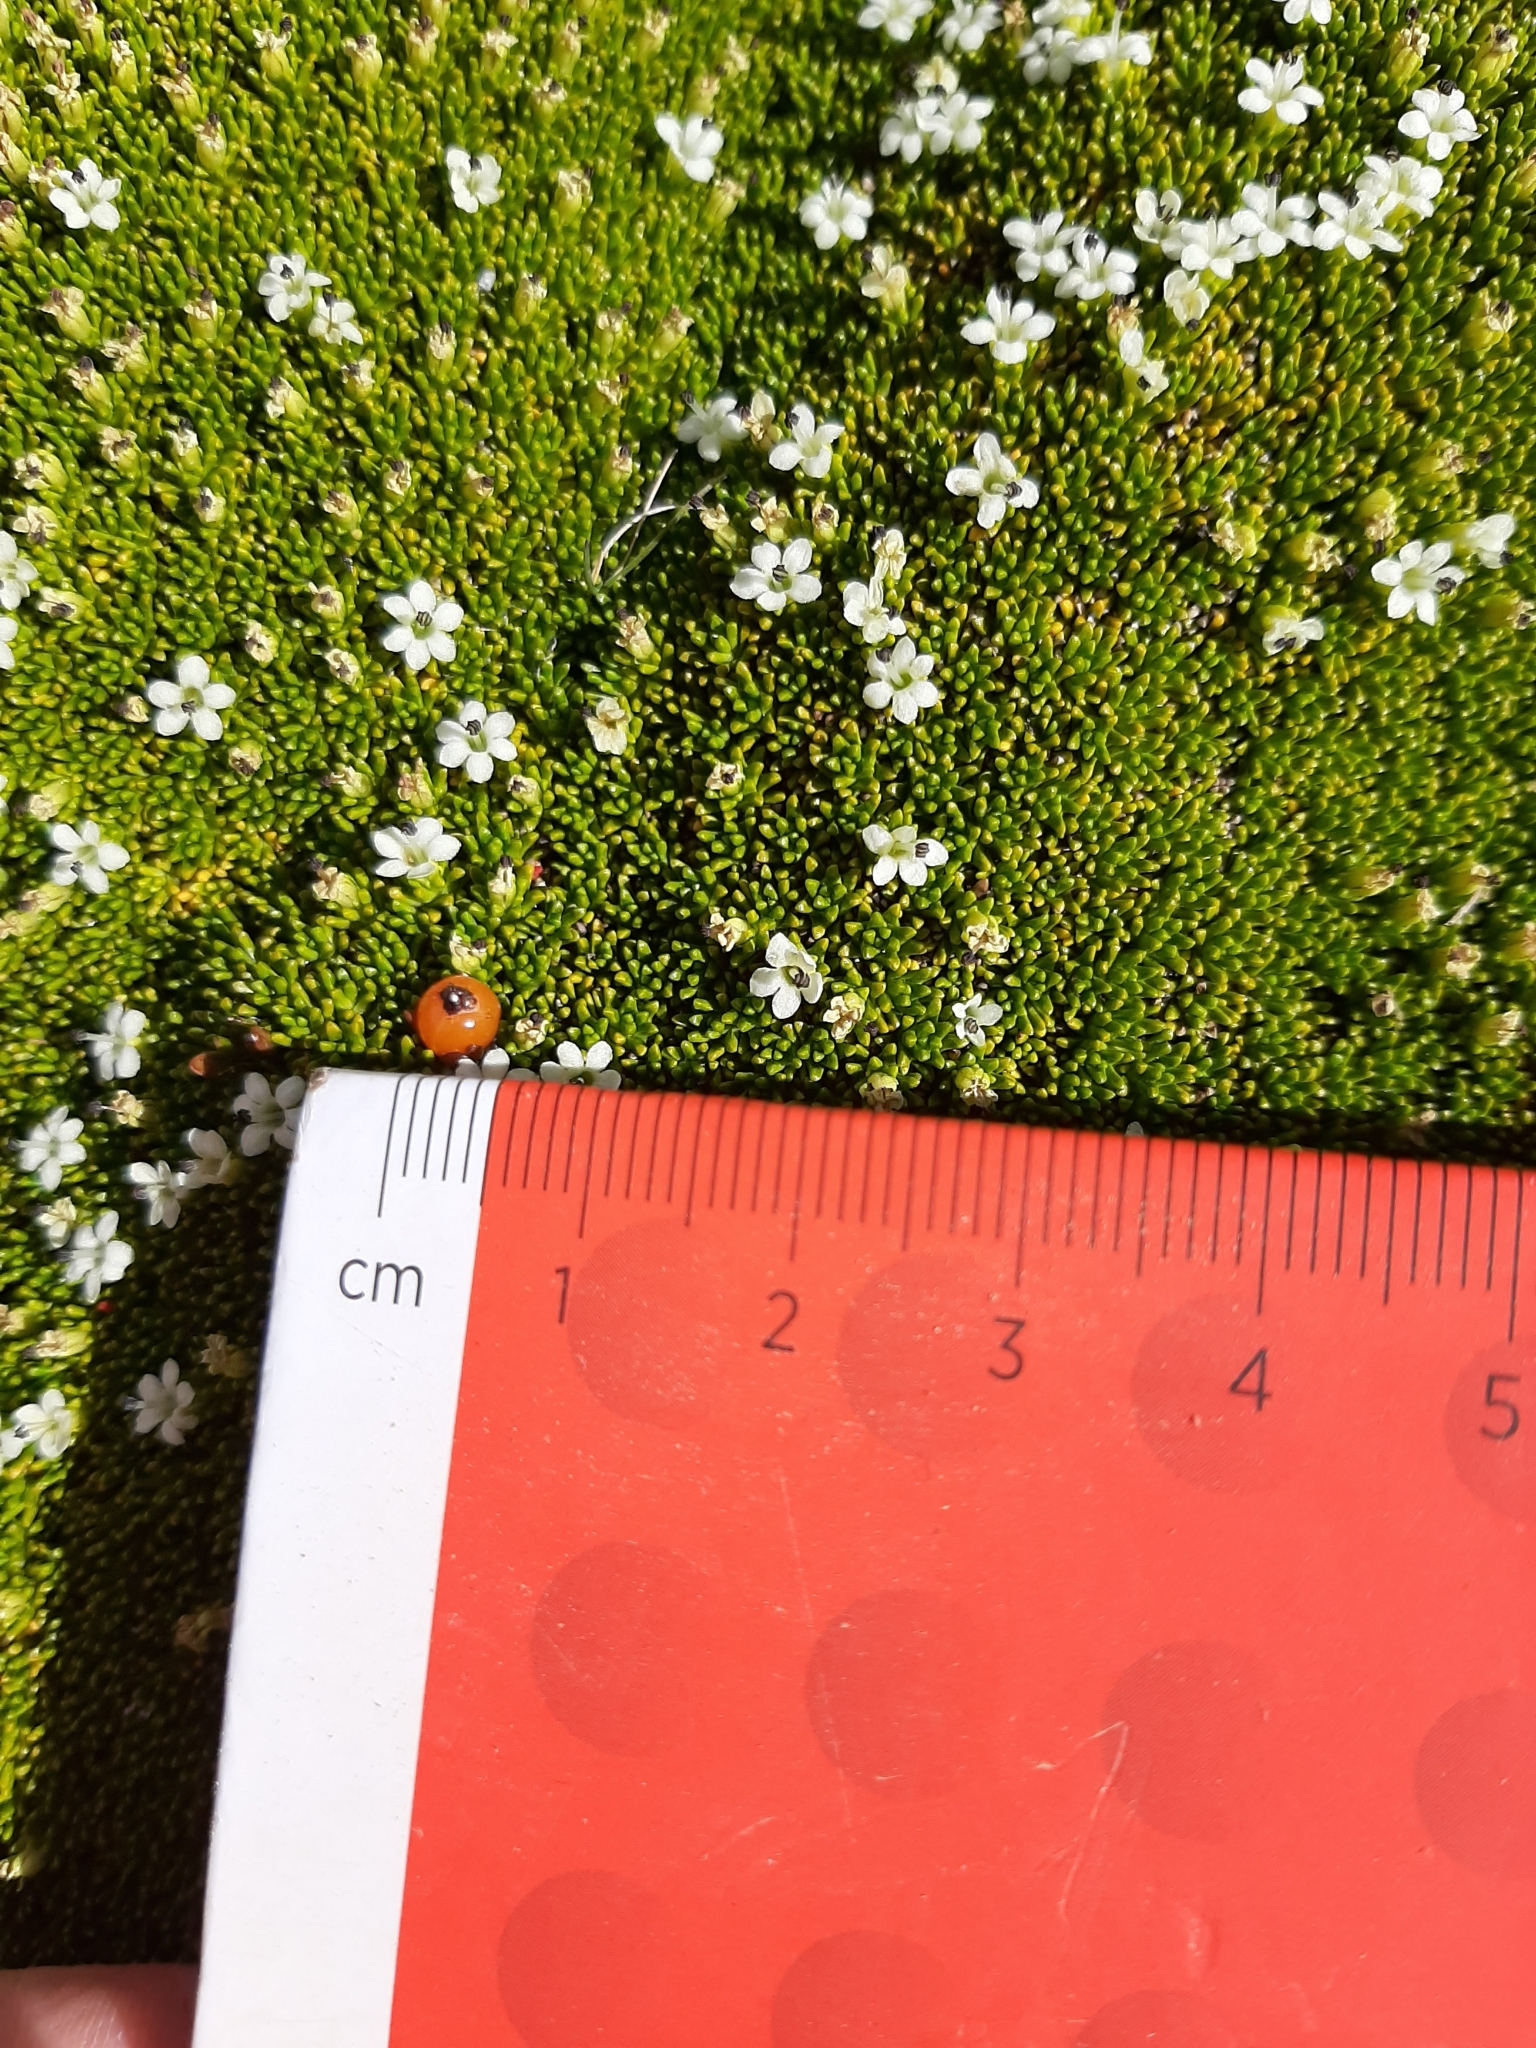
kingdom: Plantae
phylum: Tracheophyta
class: Magnoliopsida
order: Asterales
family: Stylidiaceae
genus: Phyllachne
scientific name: Phyllachne colensoi
